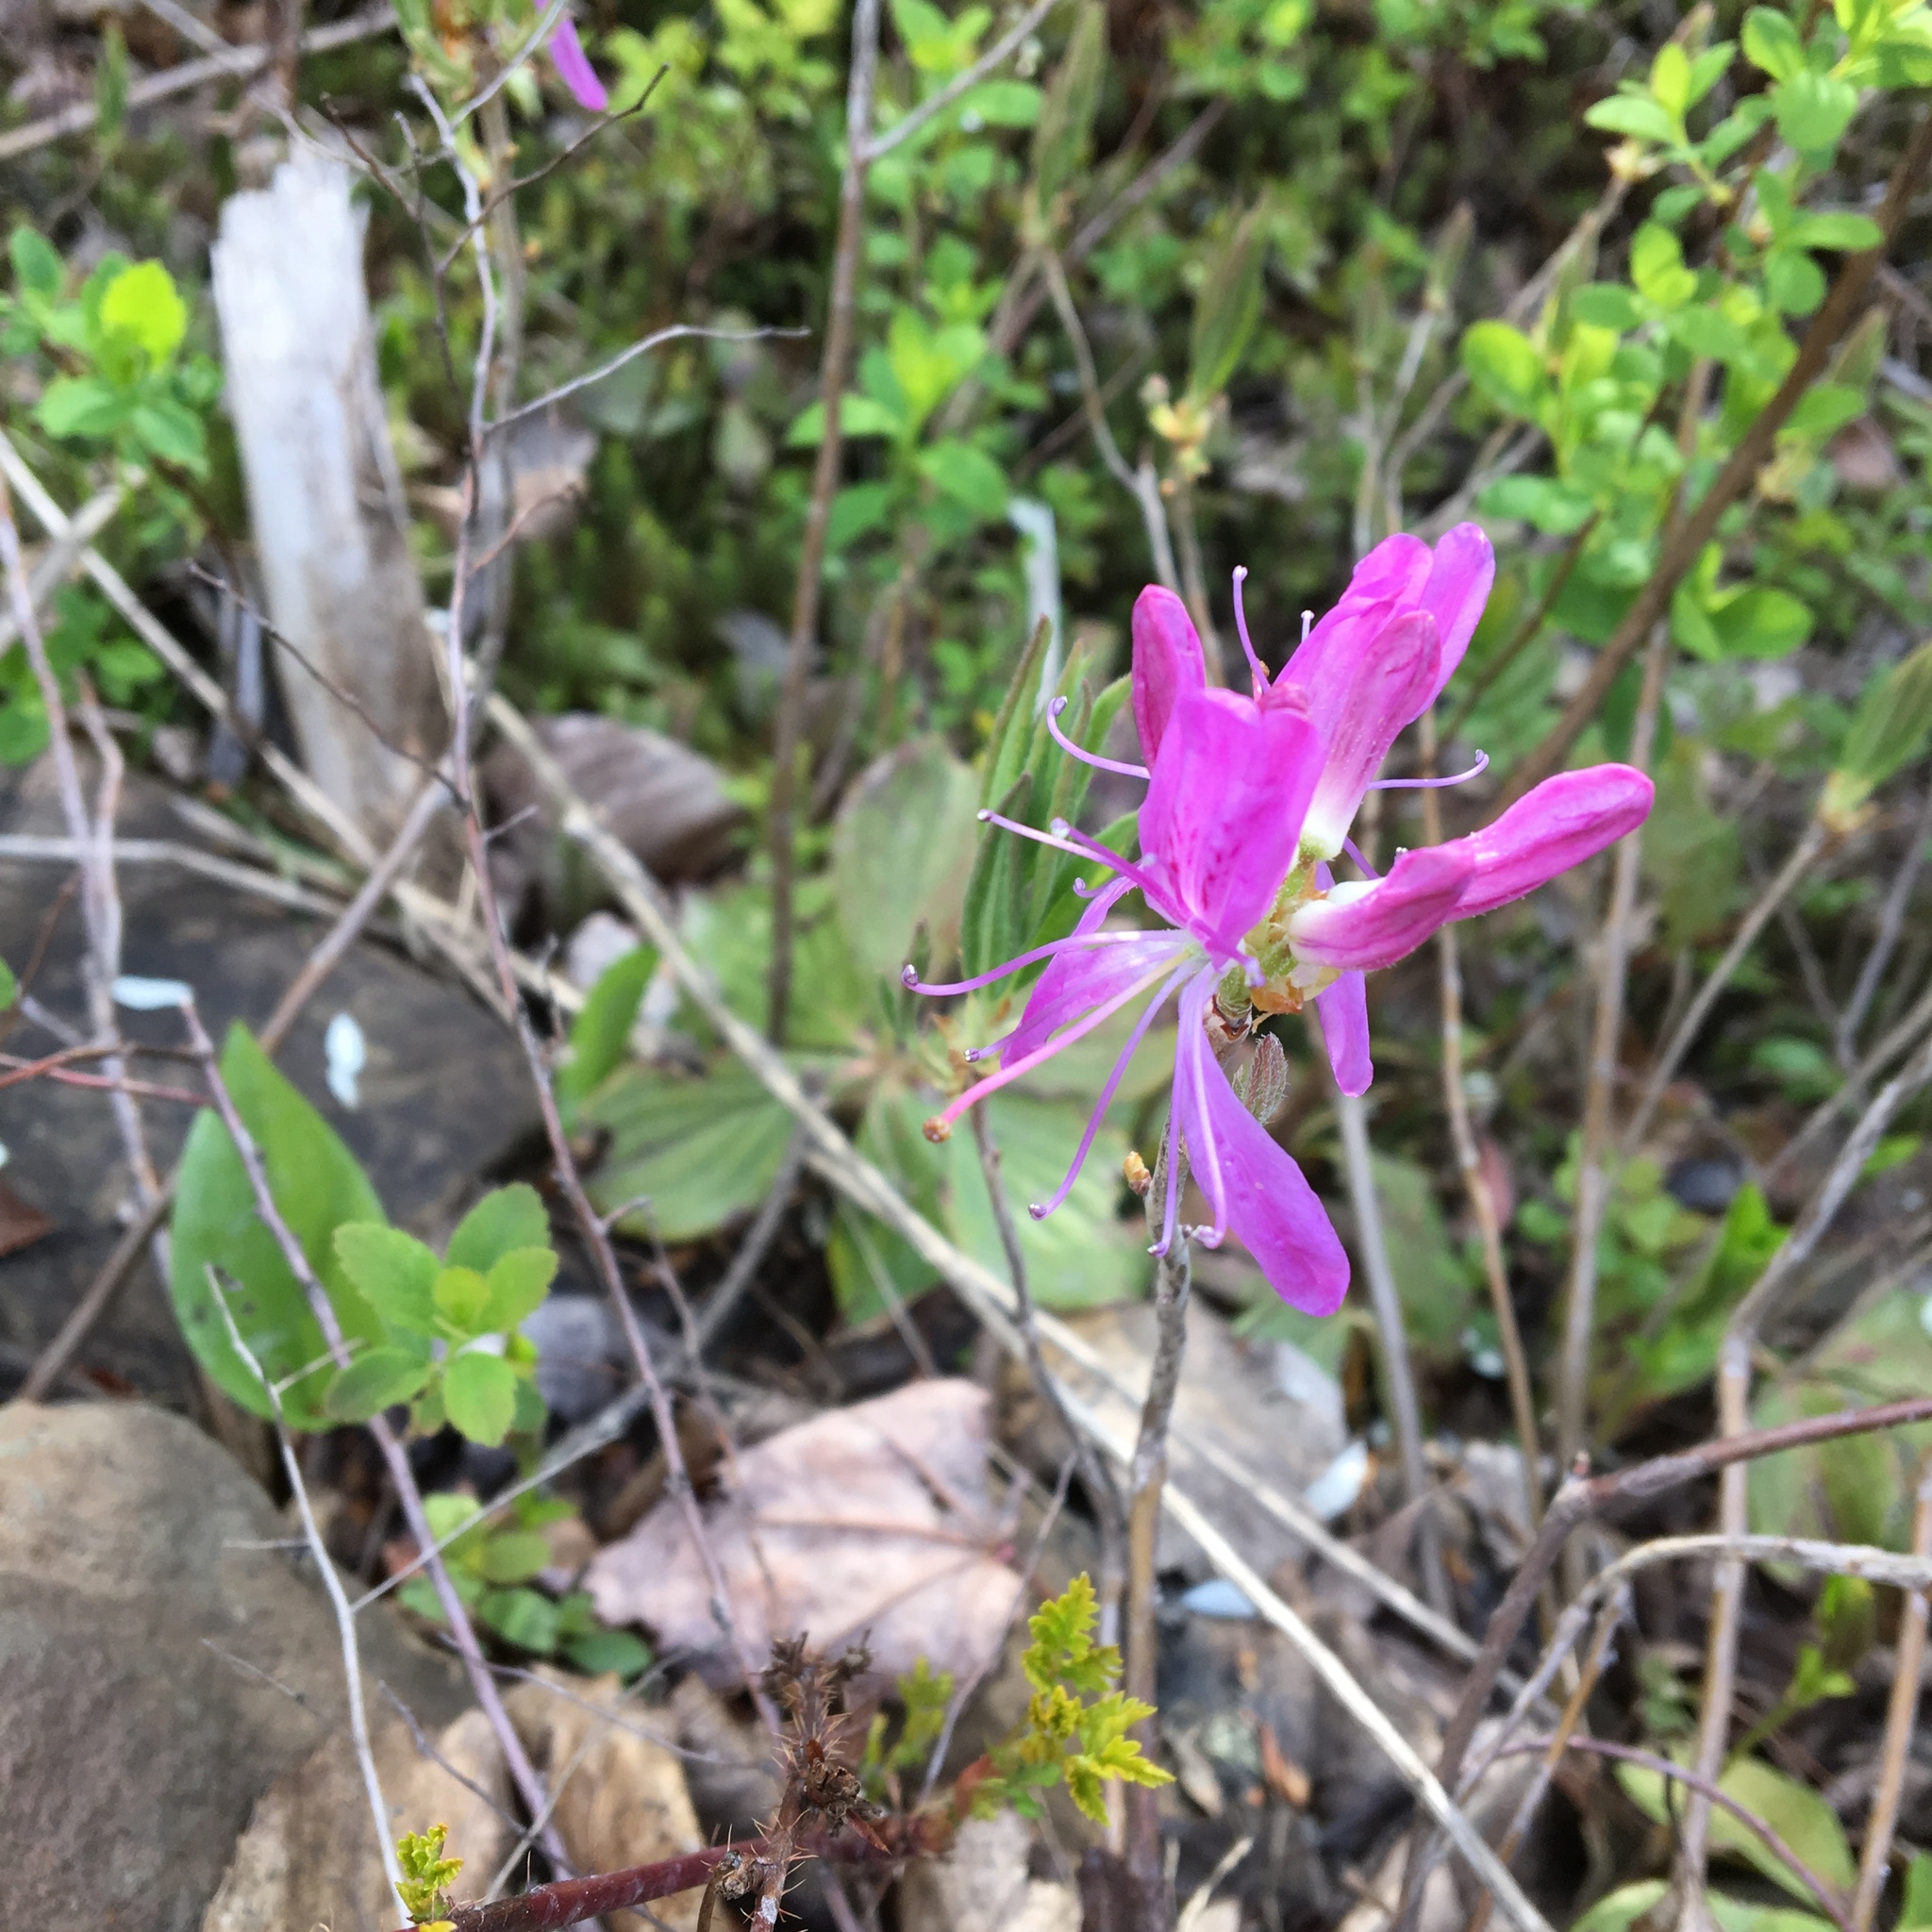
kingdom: Plantae
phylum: Tracheophyta
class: Magnoliopsida
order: Ericales
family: Ericaceae
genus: Rhododendron
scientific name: Rhododendron canadense
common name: Rhodora
